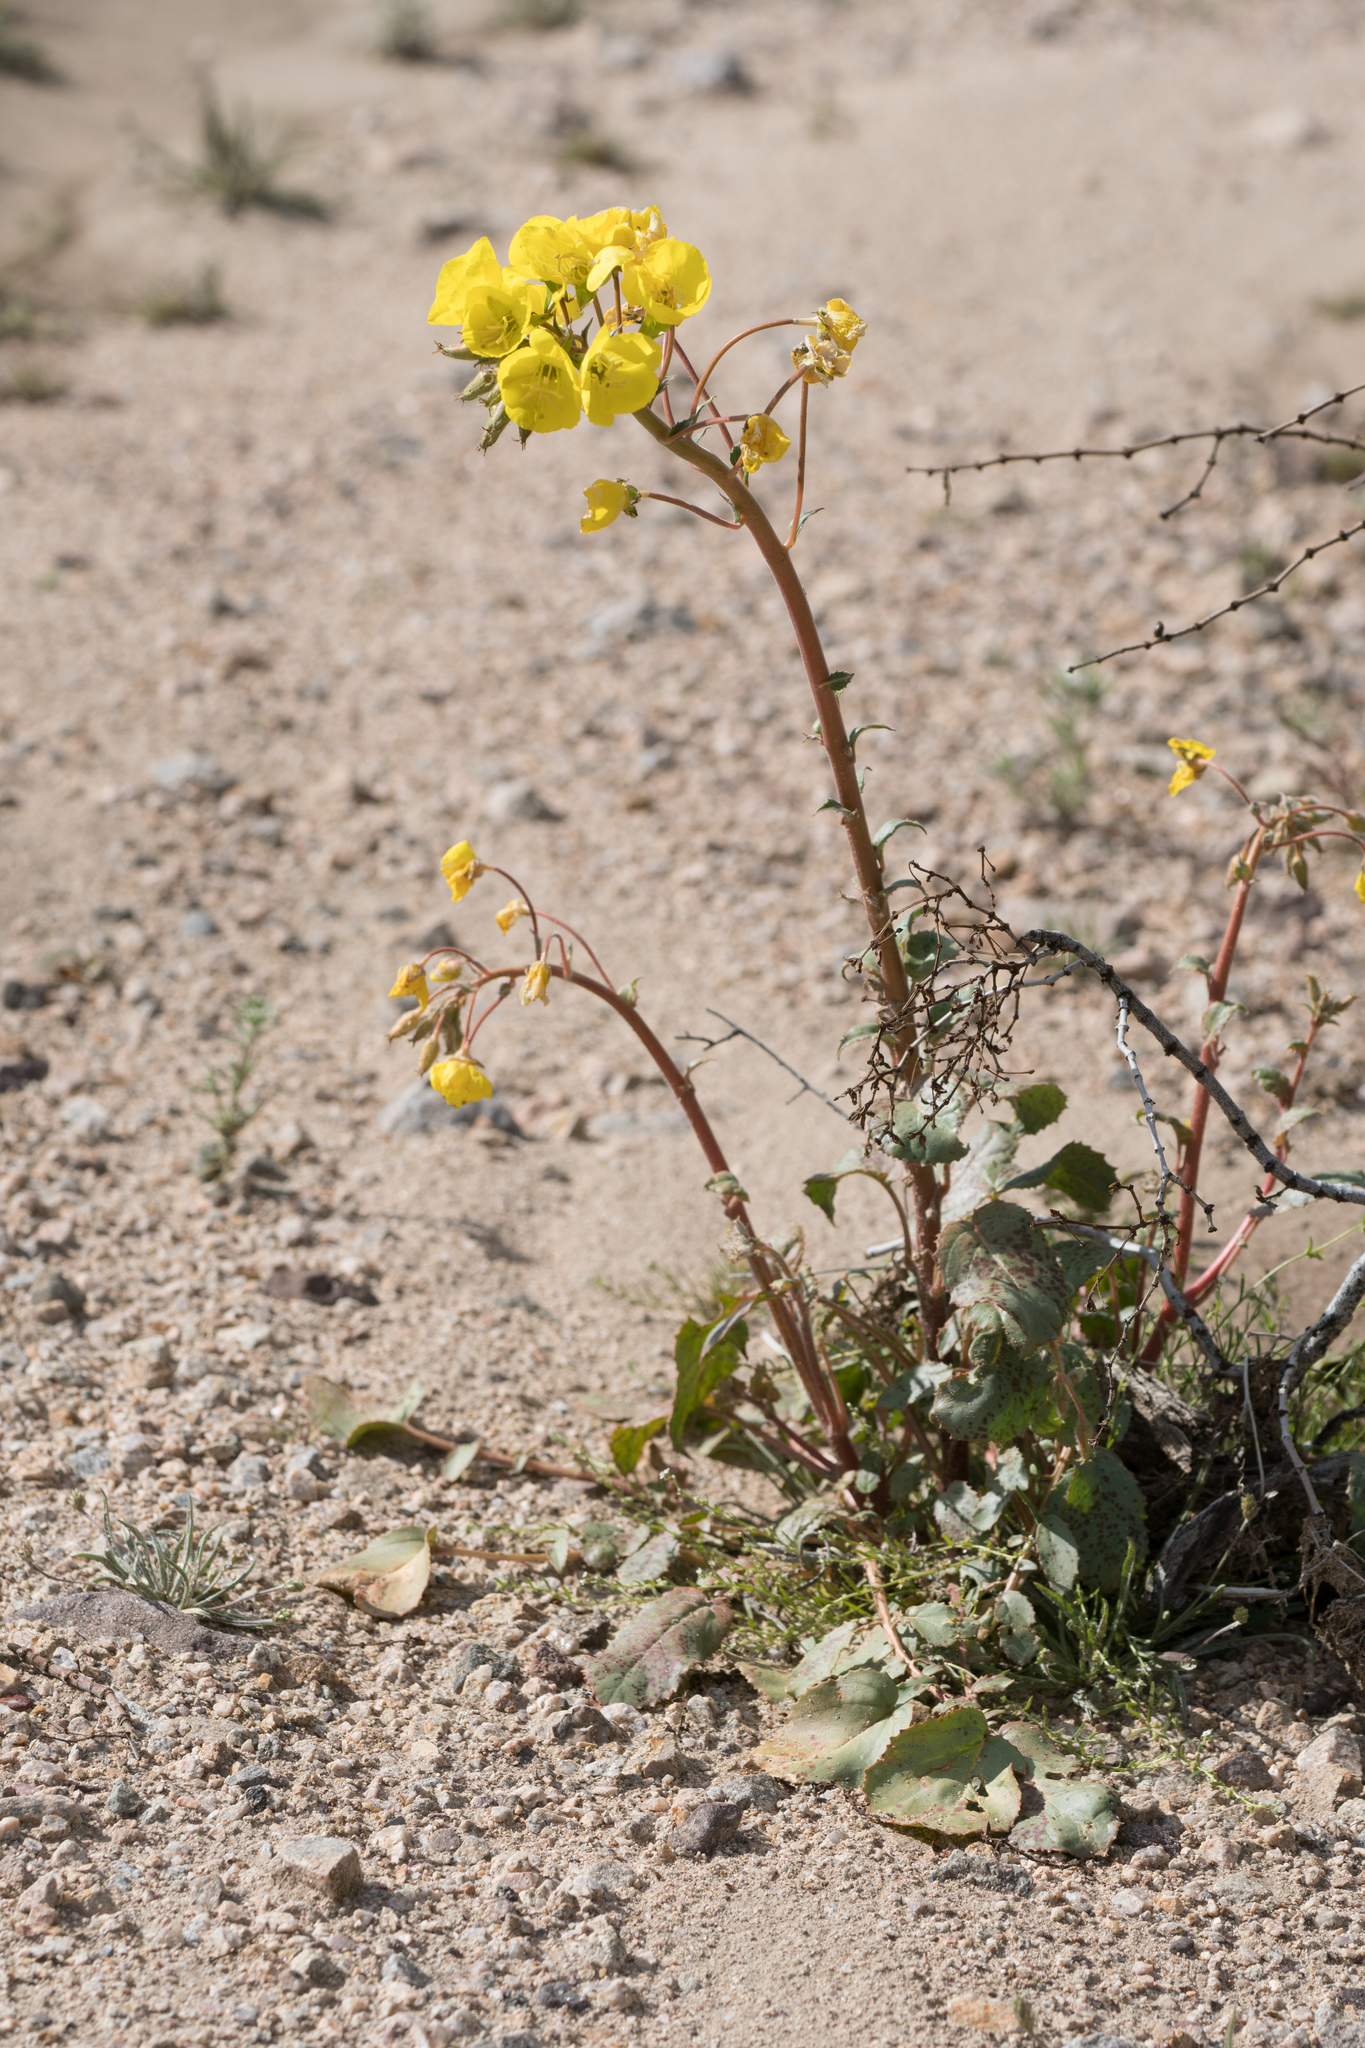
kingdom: Plantae
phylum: Tracheophyta
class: Magnoliopsida
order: Myrtales
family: Onagraceae
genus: Chylismia
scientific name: Chylismia brevipes
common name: Yellow cups
